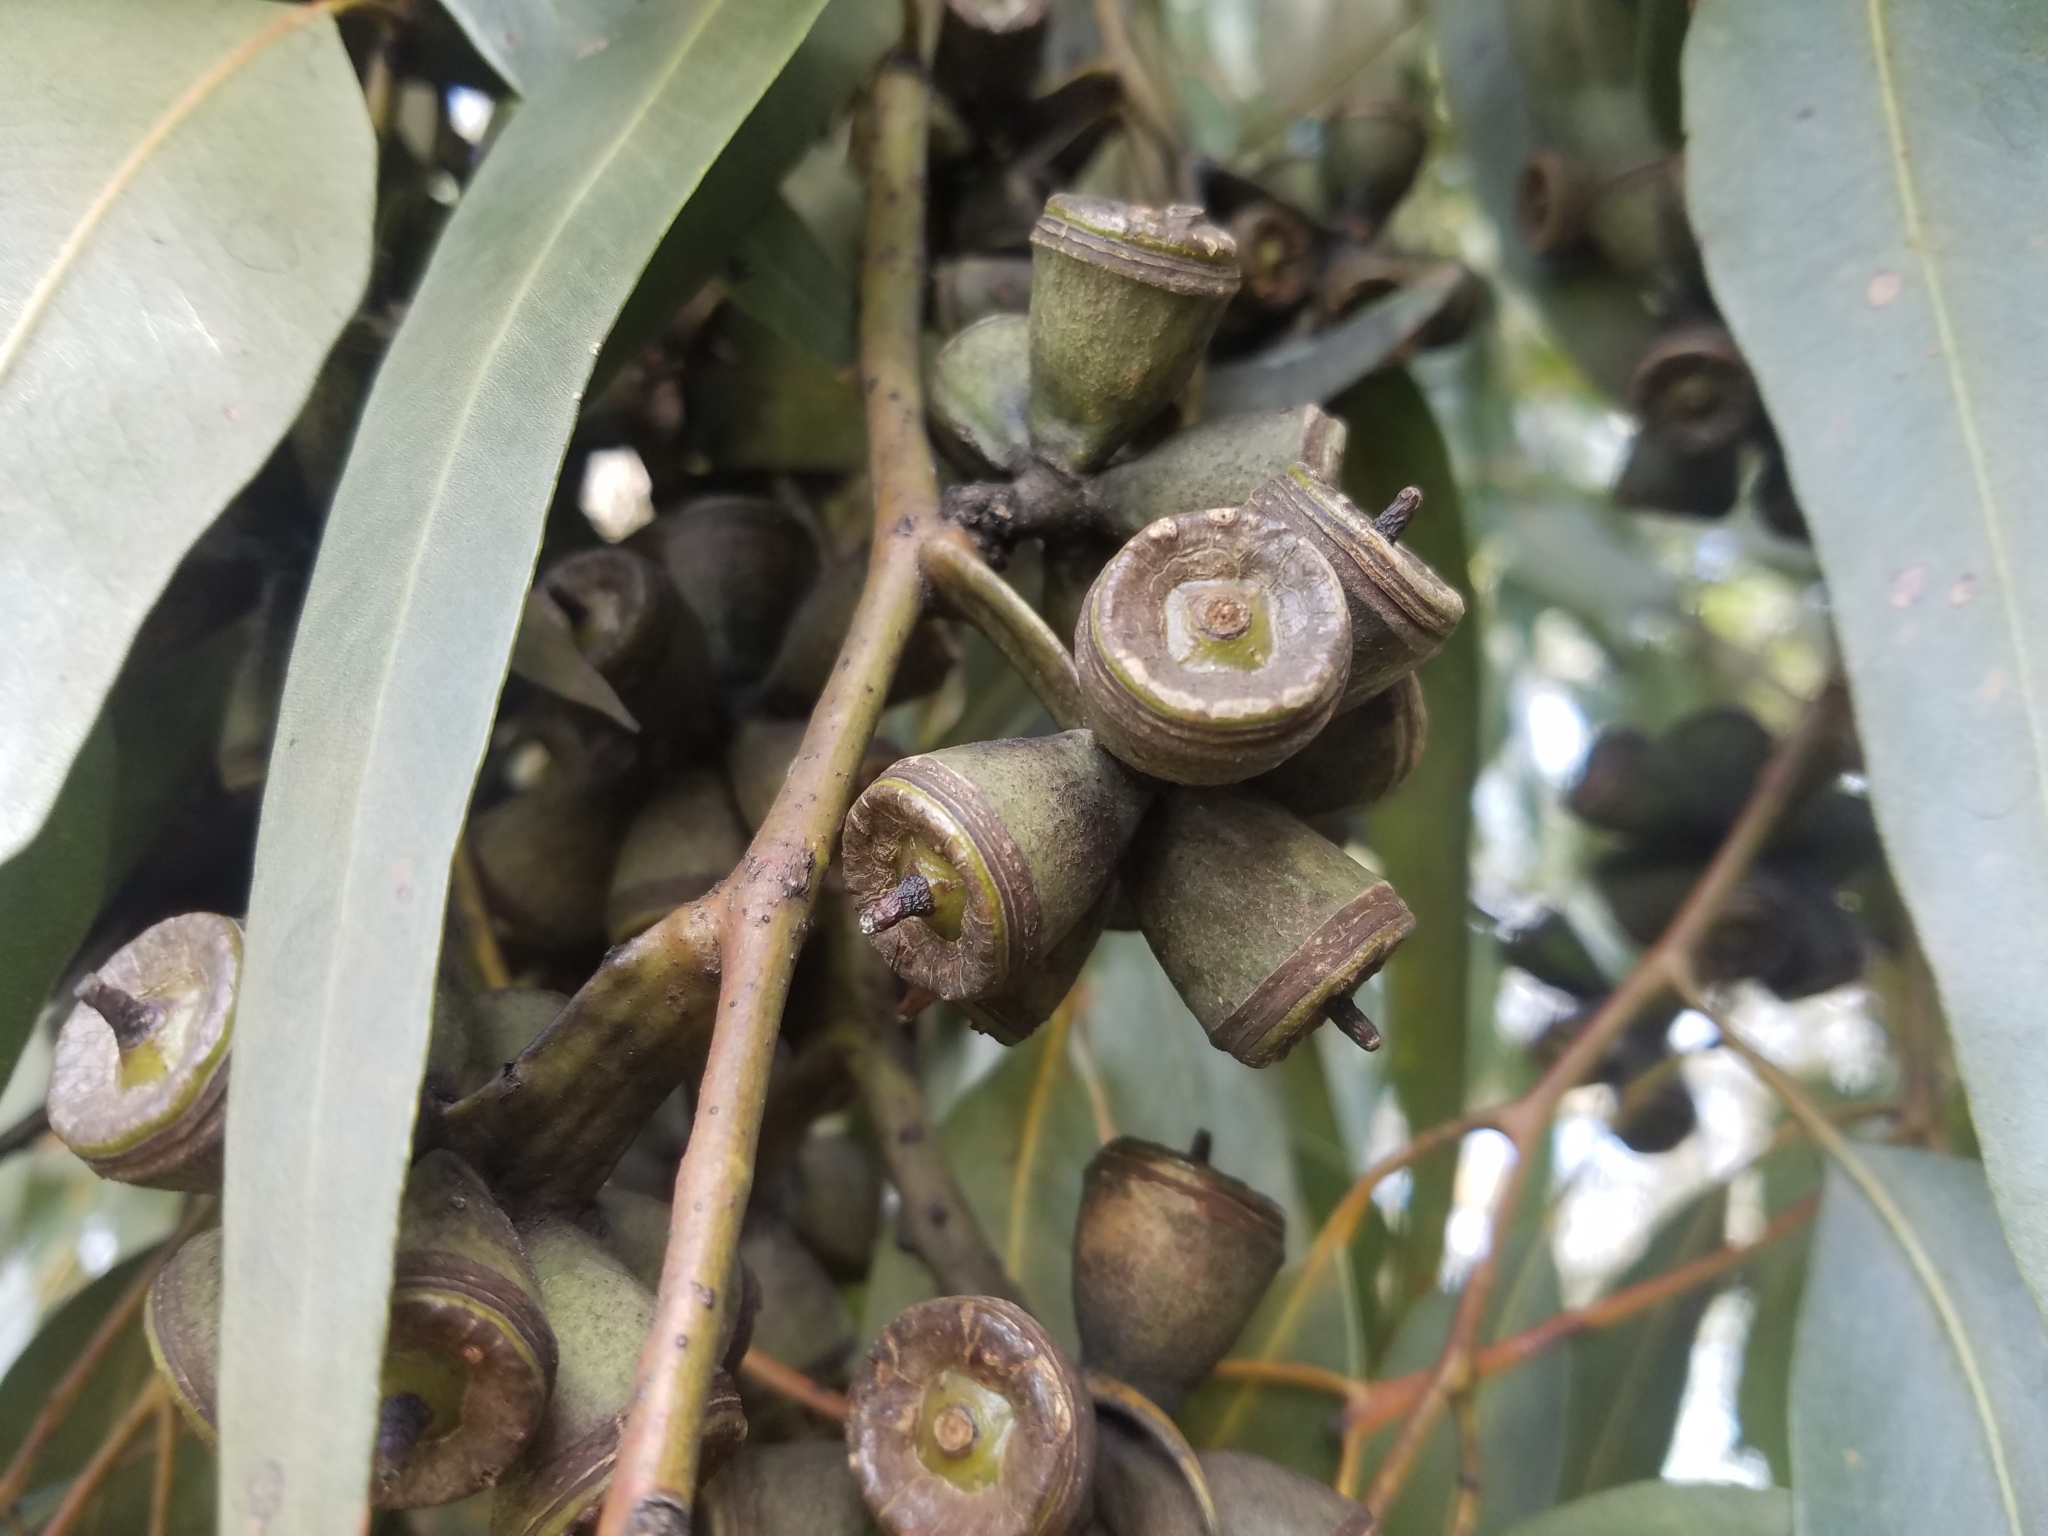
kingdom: Plantae
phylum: Tracheophyta
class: Magnoliopsida
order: Myrtales
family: Myrtaceae
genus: Eucalyptus
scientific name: Eucalyptus gomphocephala
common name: Tuart
